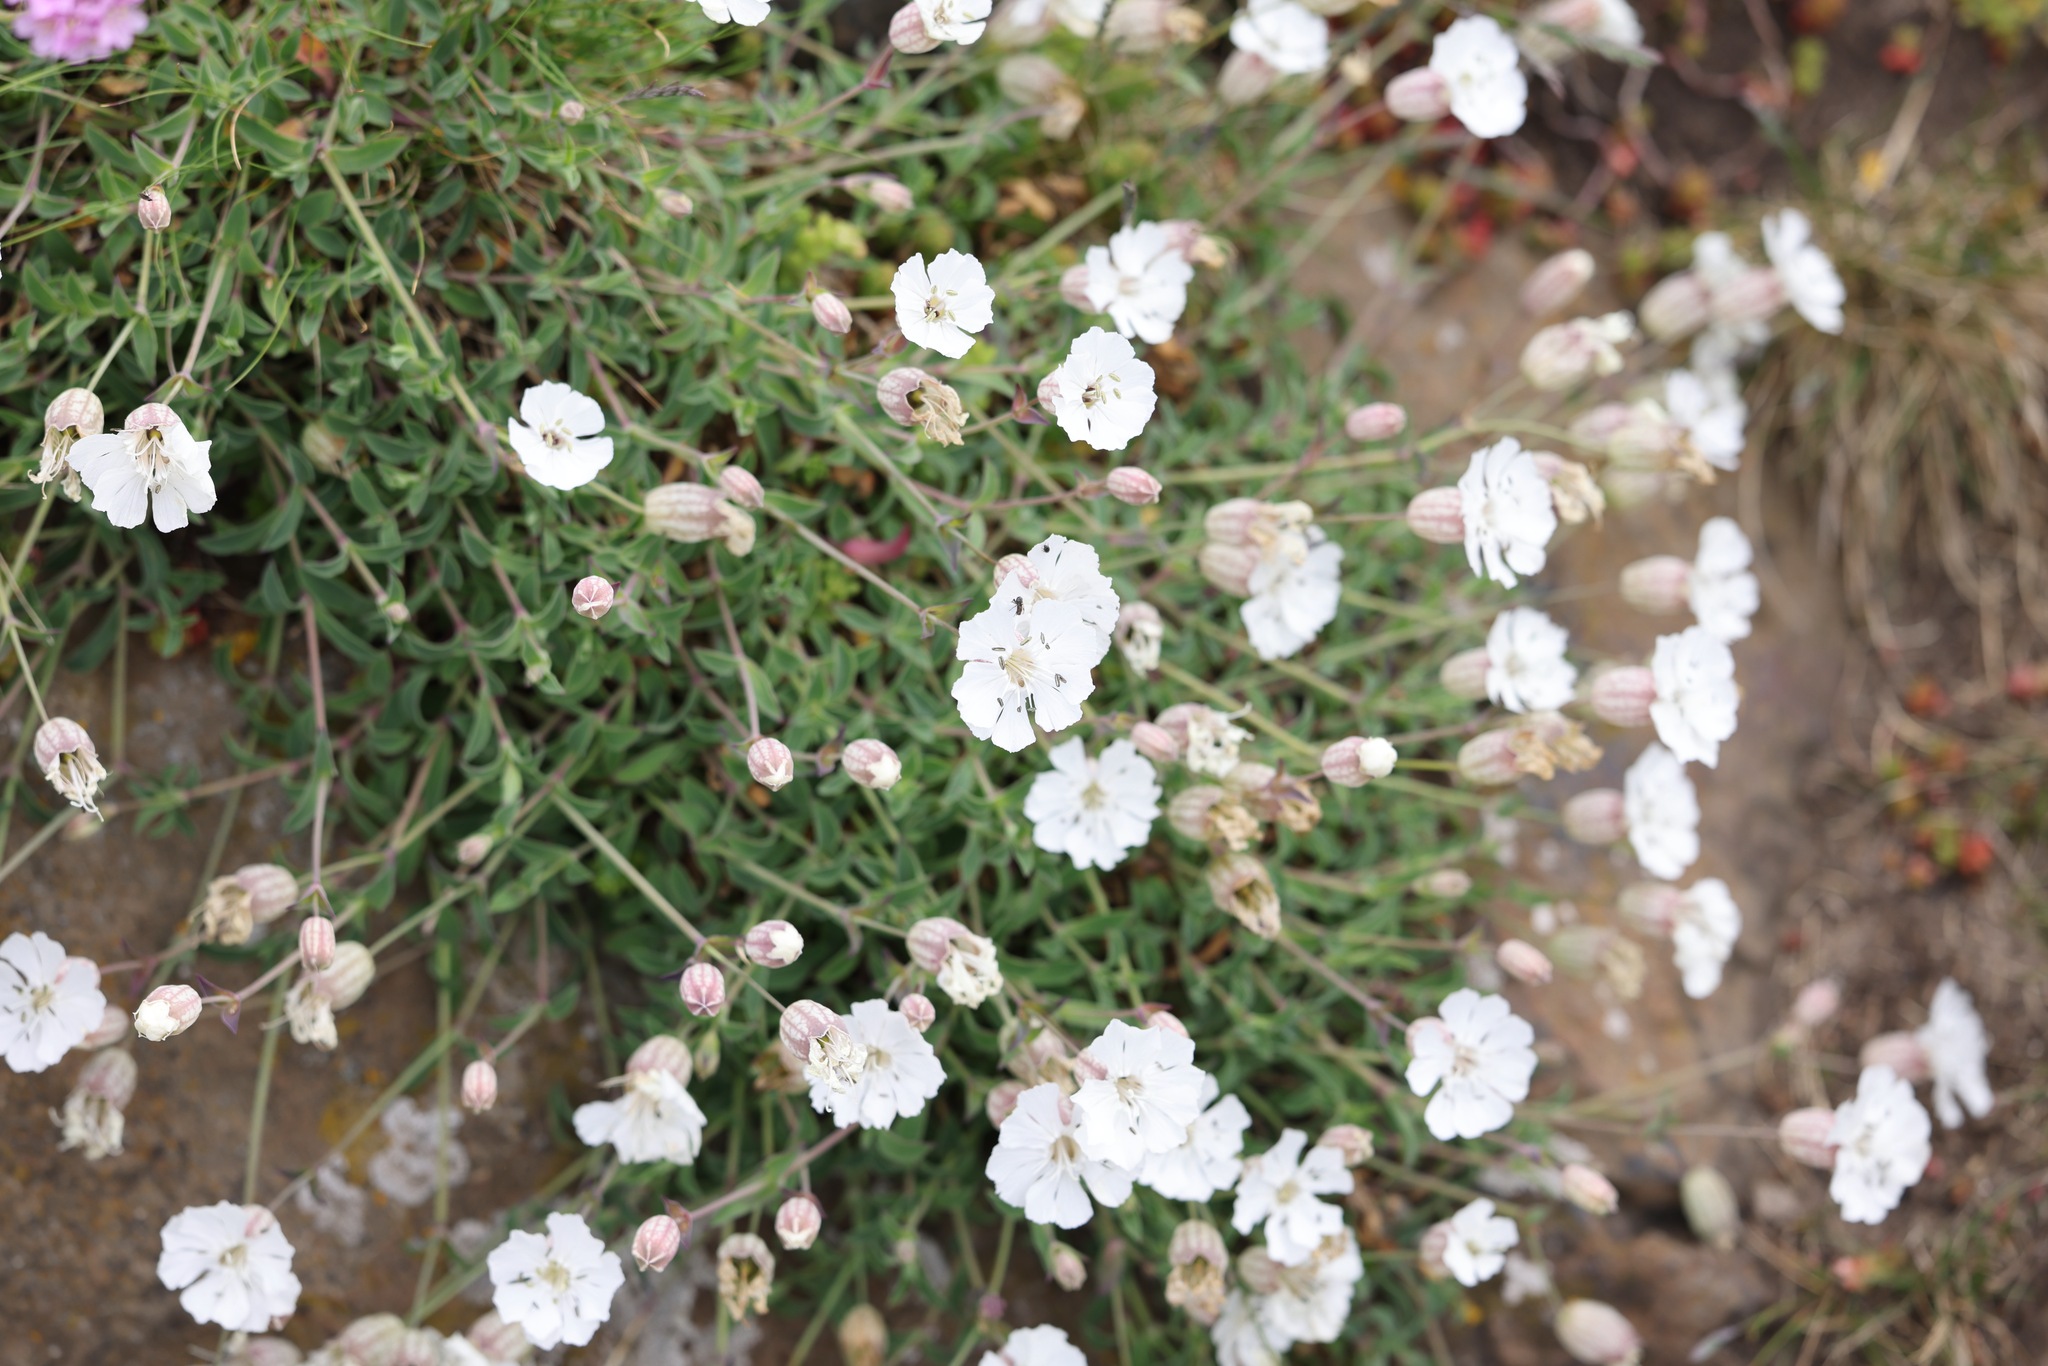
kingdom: Plantae
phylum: Tracheophyta
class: Magnoliopsida
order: Caryophyllales
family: Caryophyllaceae
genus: Silene
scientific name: Silene uniflora
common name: Sea campion
